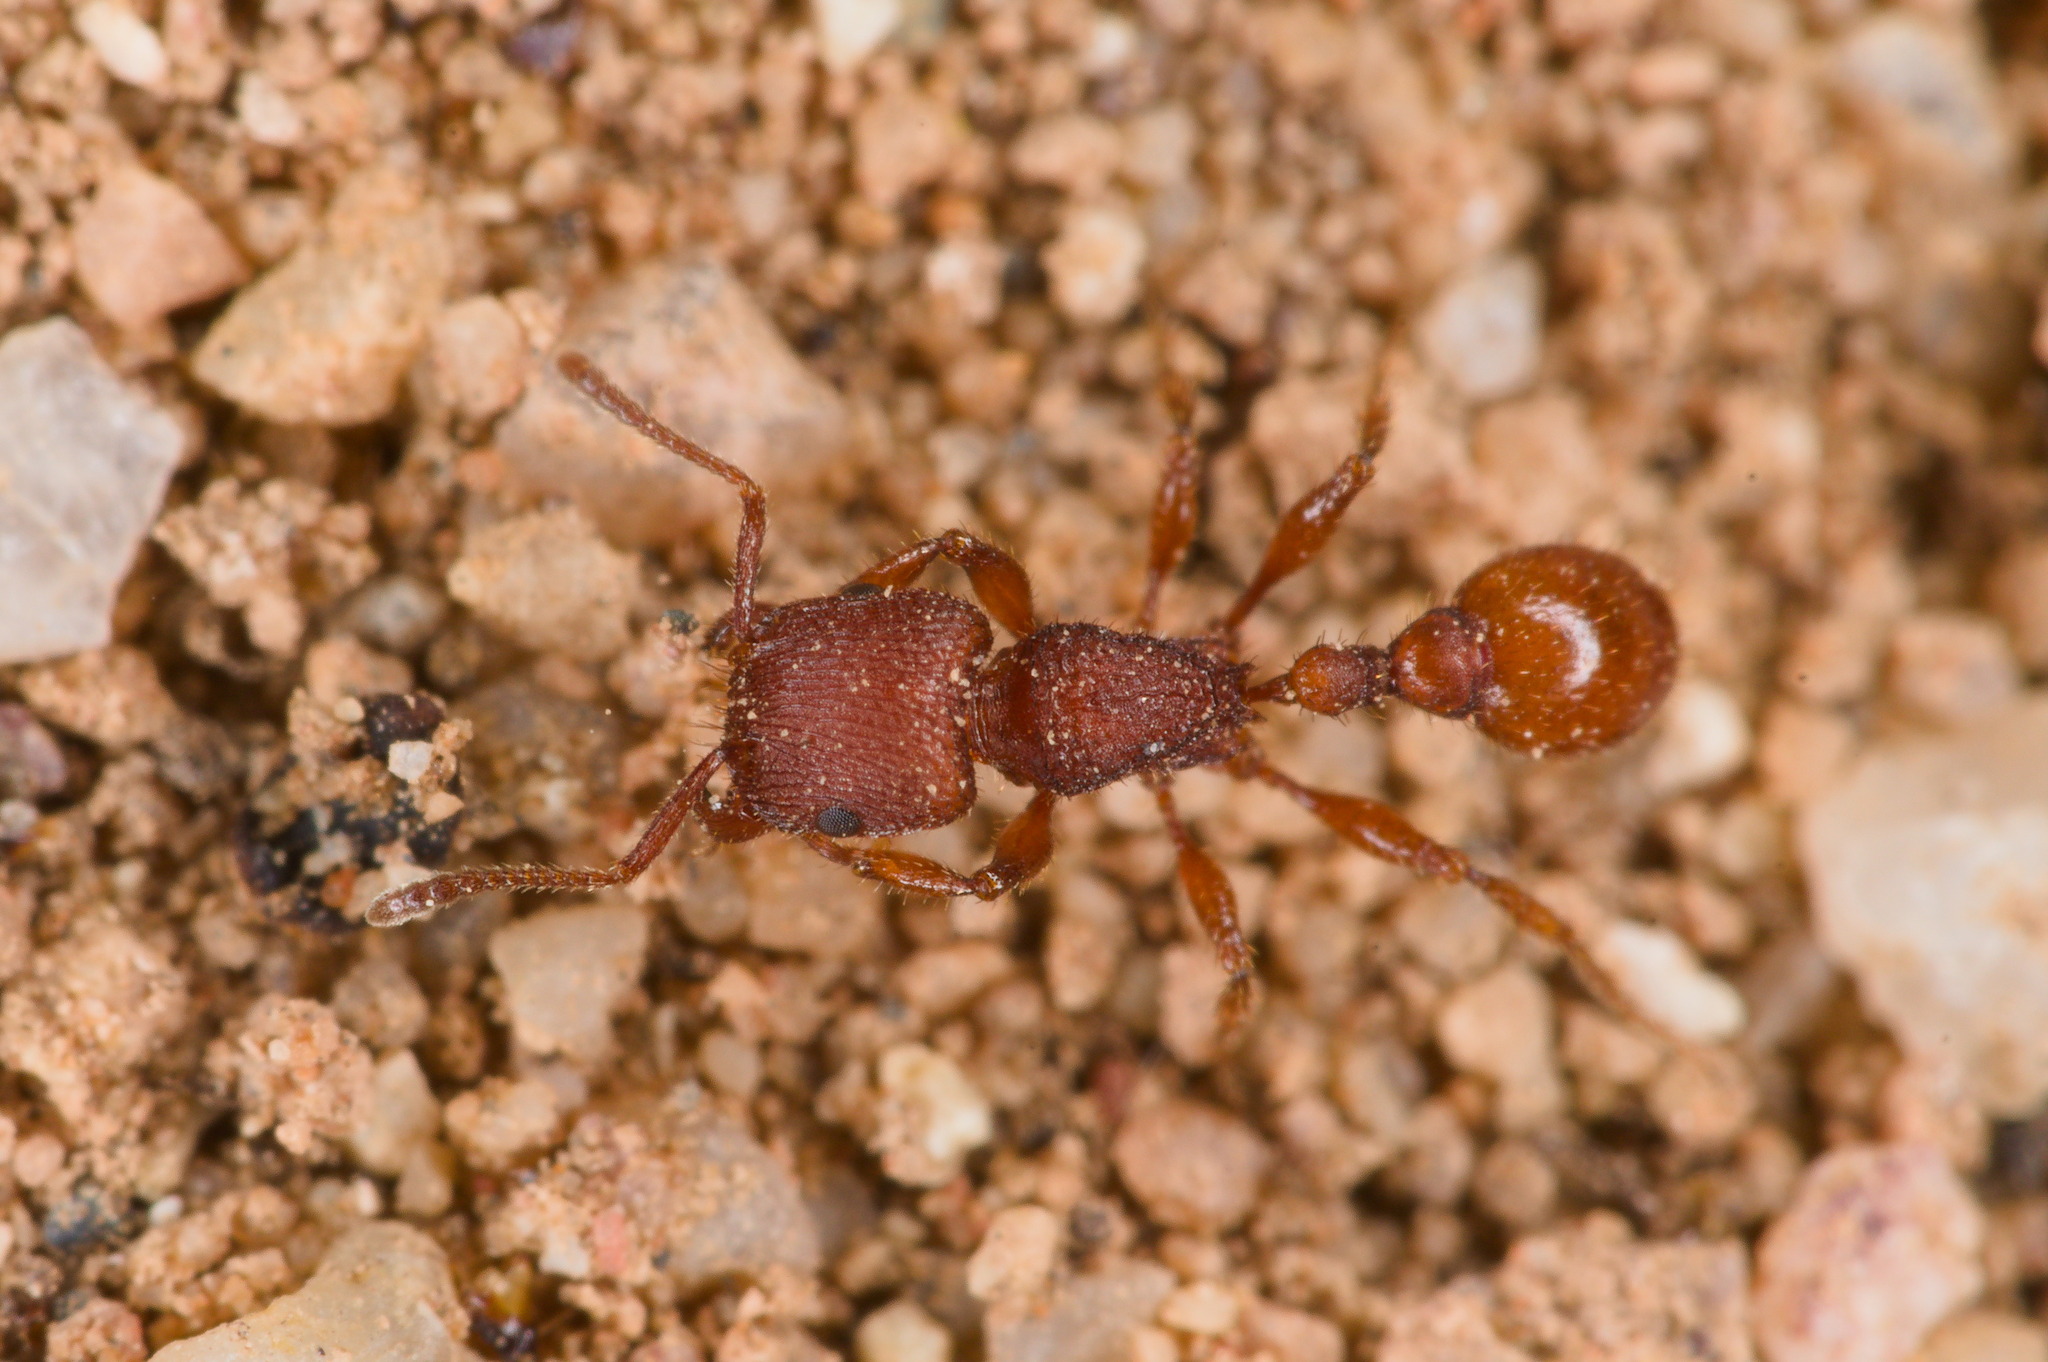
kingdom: Animalia
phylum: Arthropoda
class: Insecta
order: Hymenoptera
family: Formicidae
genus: Pogonomyrmex
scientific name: Pogonomyrmex pima
